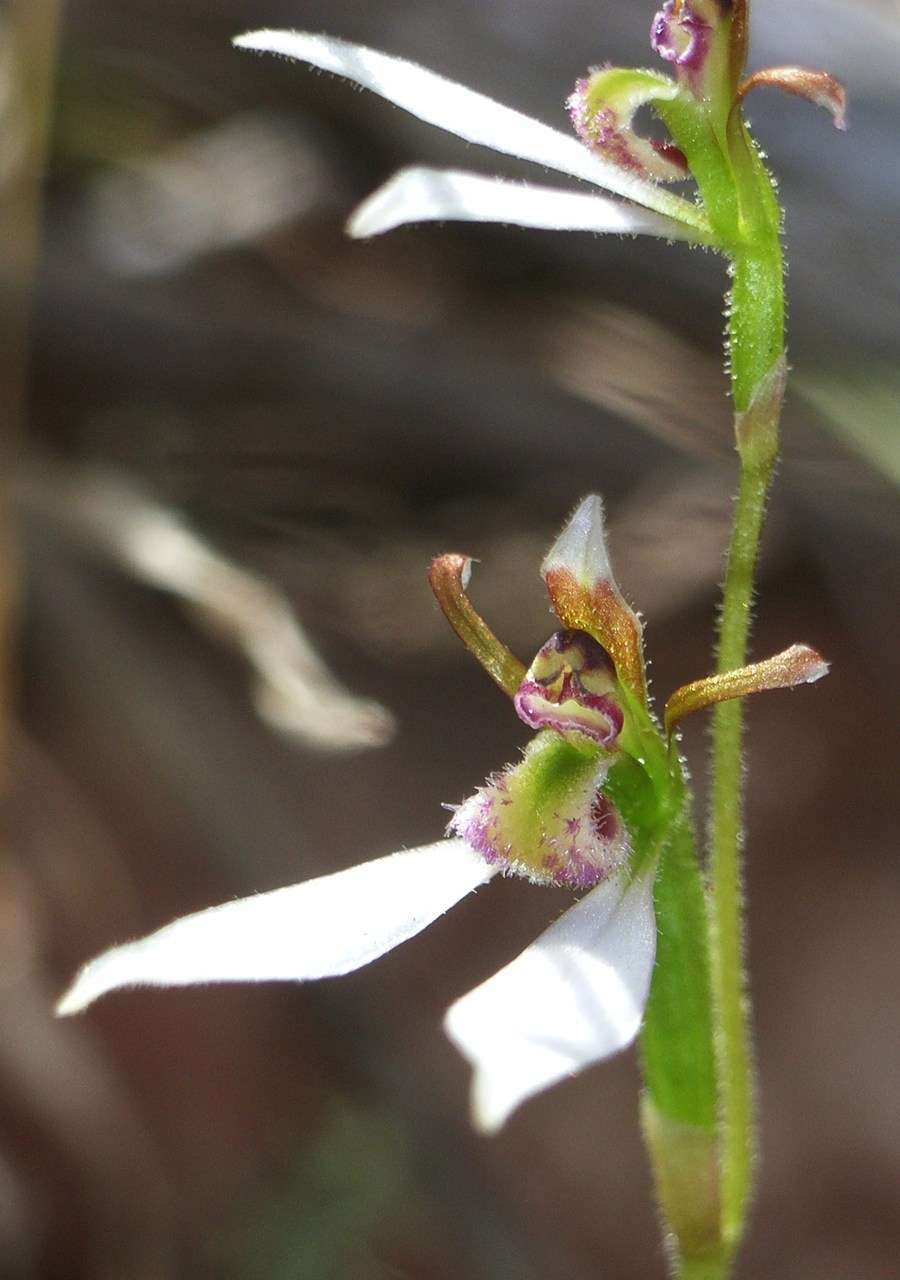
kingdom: Plantae
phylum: Tracheophyta
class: Liliopsida
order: Asparagales
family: Orchidaceae
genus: Eriochilus
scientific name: Eriochilus cucullatus
